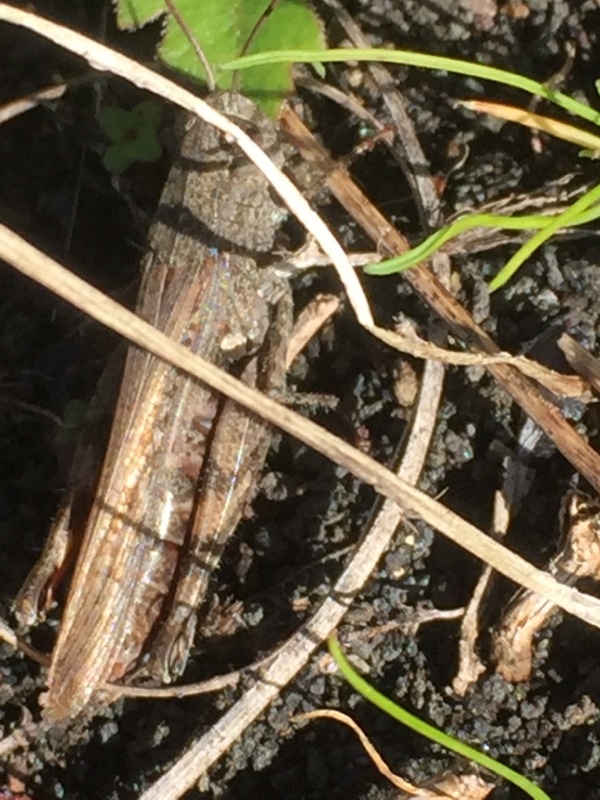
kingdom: Animalia
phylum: Arthropoda
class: Insecta
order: Orthoptera
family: Acrididae
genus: Calliptamus
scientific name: Calliptamus plebeius
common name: Canarian pincer grasshopper
